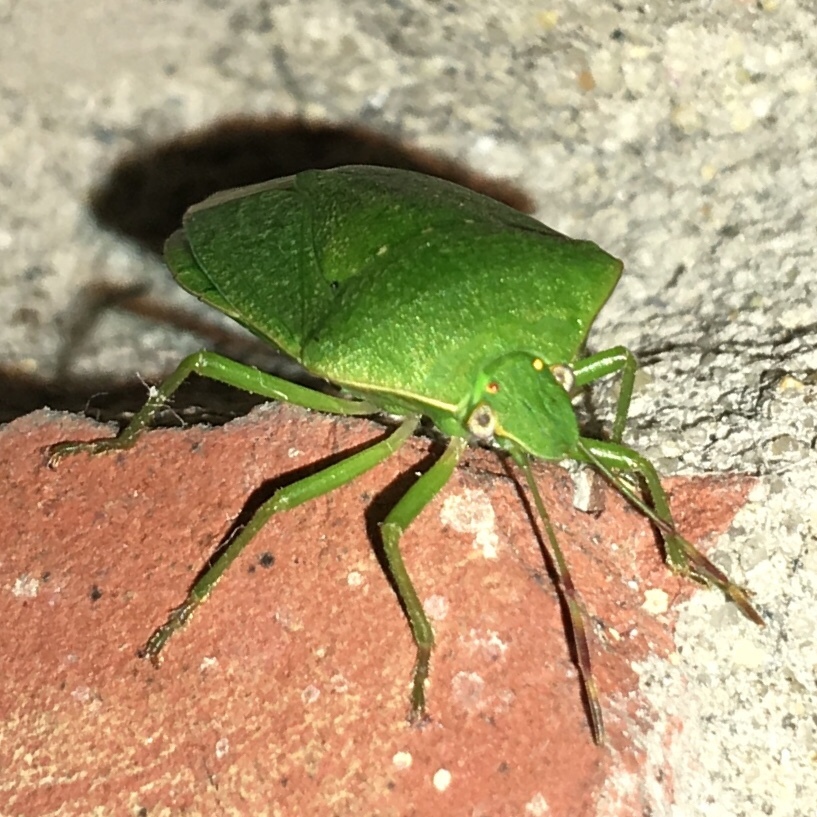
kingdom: Animalia
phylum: Arthropoda
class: Insecta
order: Hemiptera
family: Pentatomidae
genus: Nezara
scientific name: Nezara viridula
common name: Southern green stink bug
